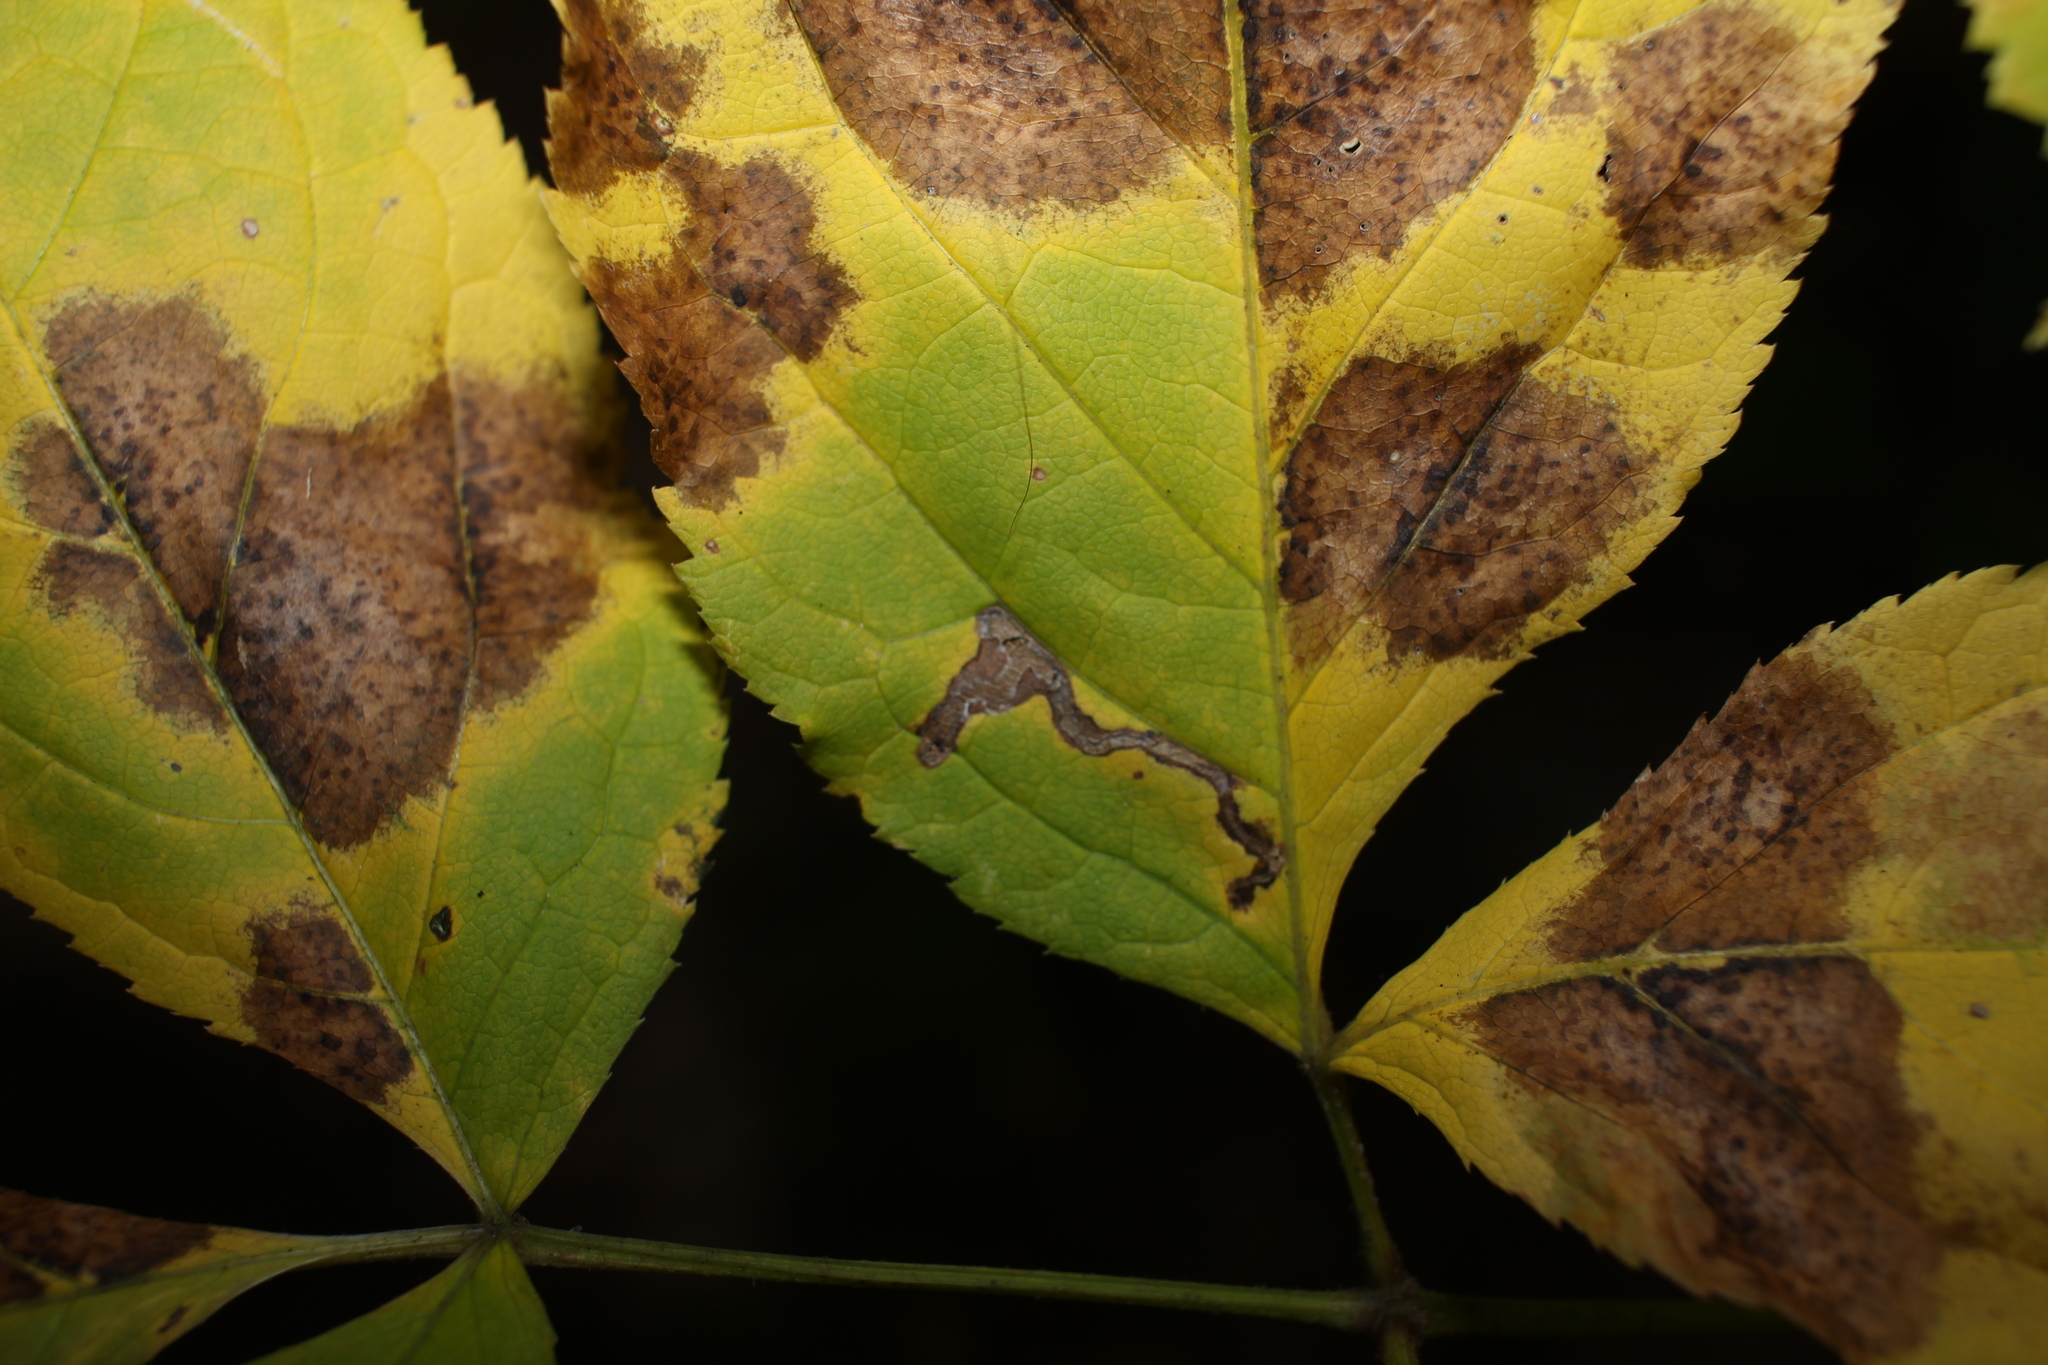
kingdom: Animalia
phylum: Arthropoda
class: Insecta
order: Diptera
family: Agromyzidae
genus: Phytomyza
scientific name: Phytomyza aralivora
